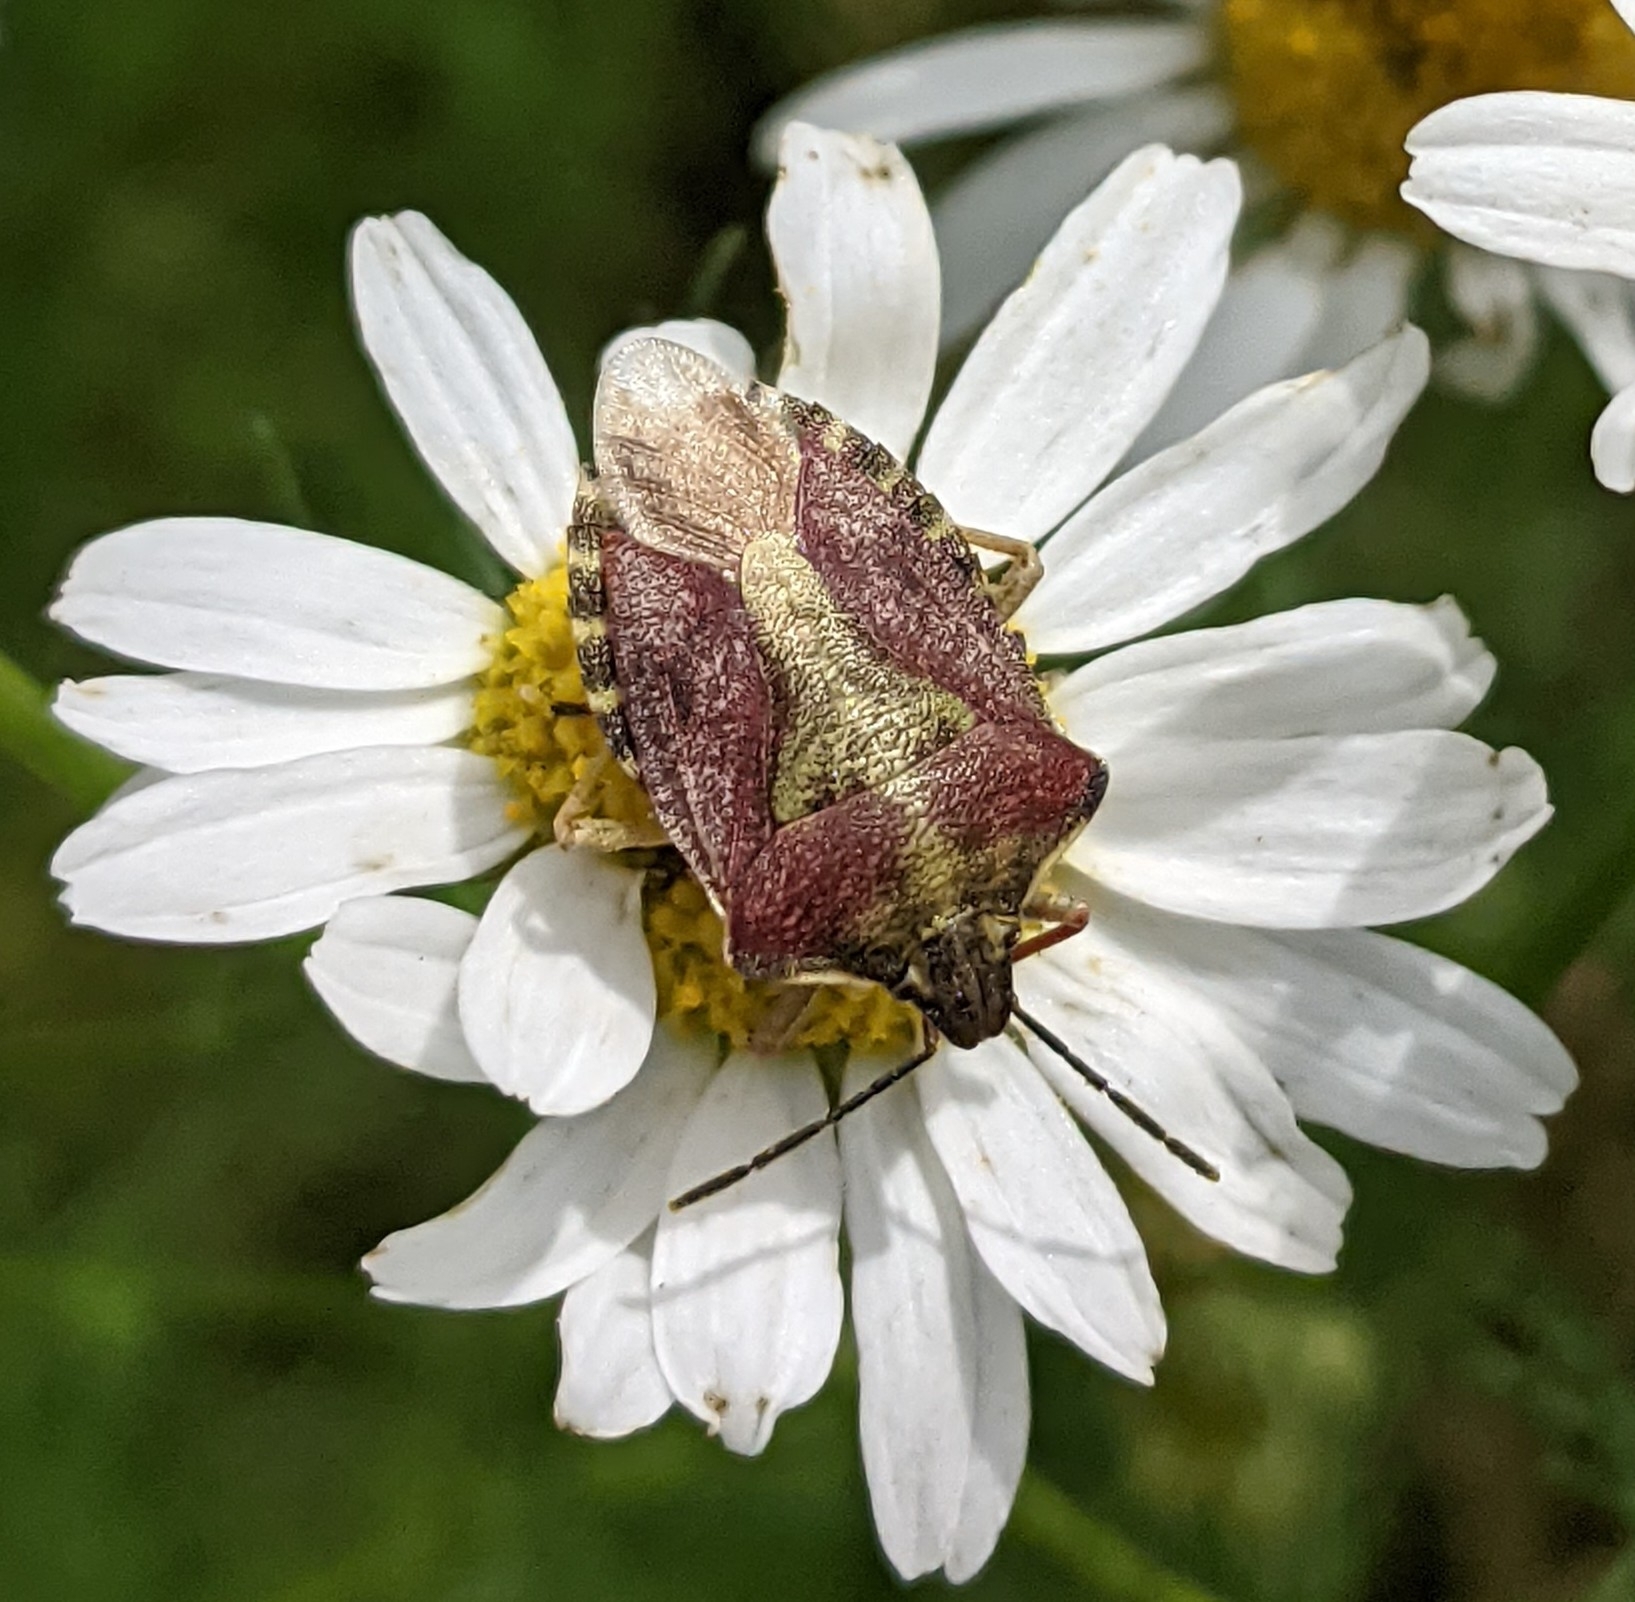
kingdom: Animalia
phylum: Arthropoda
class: Insecta
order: Hemiptera
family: Pentatomidae
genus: Carpocoris
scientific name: Carpocoris purpureipennis
